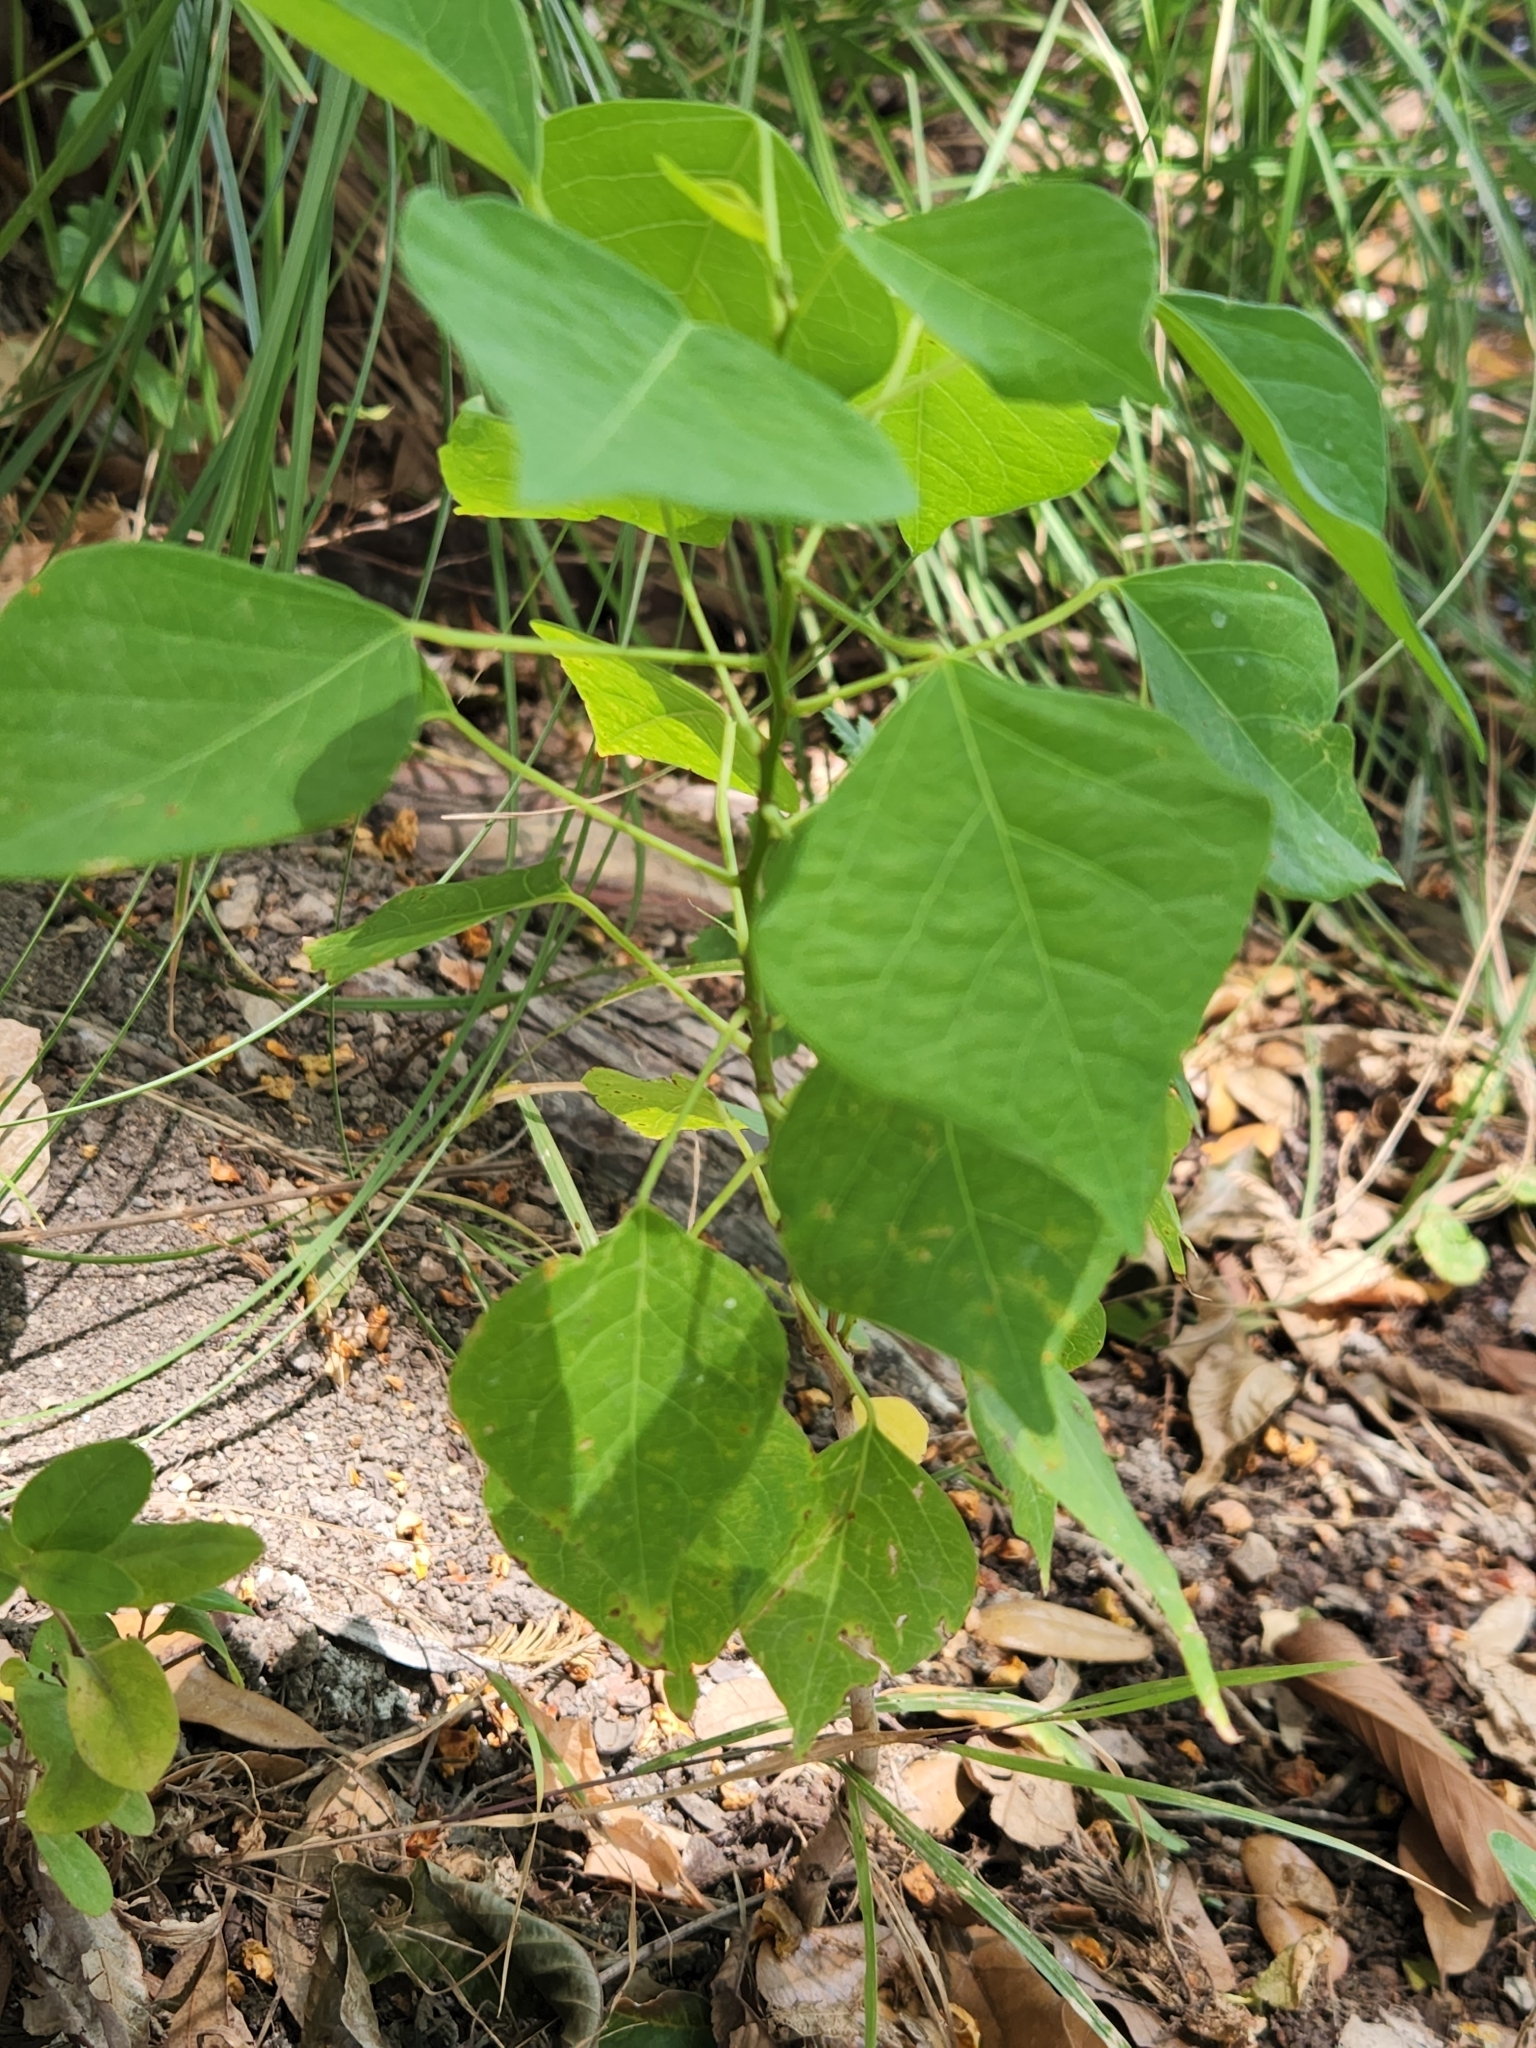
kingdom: Plantae
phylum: Tracheophyta
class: Magnoliopsida
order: Malpighiales
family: Euphorbiaceae
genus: Triadica
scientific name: Triadica sebifera
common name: Chinese tallow
